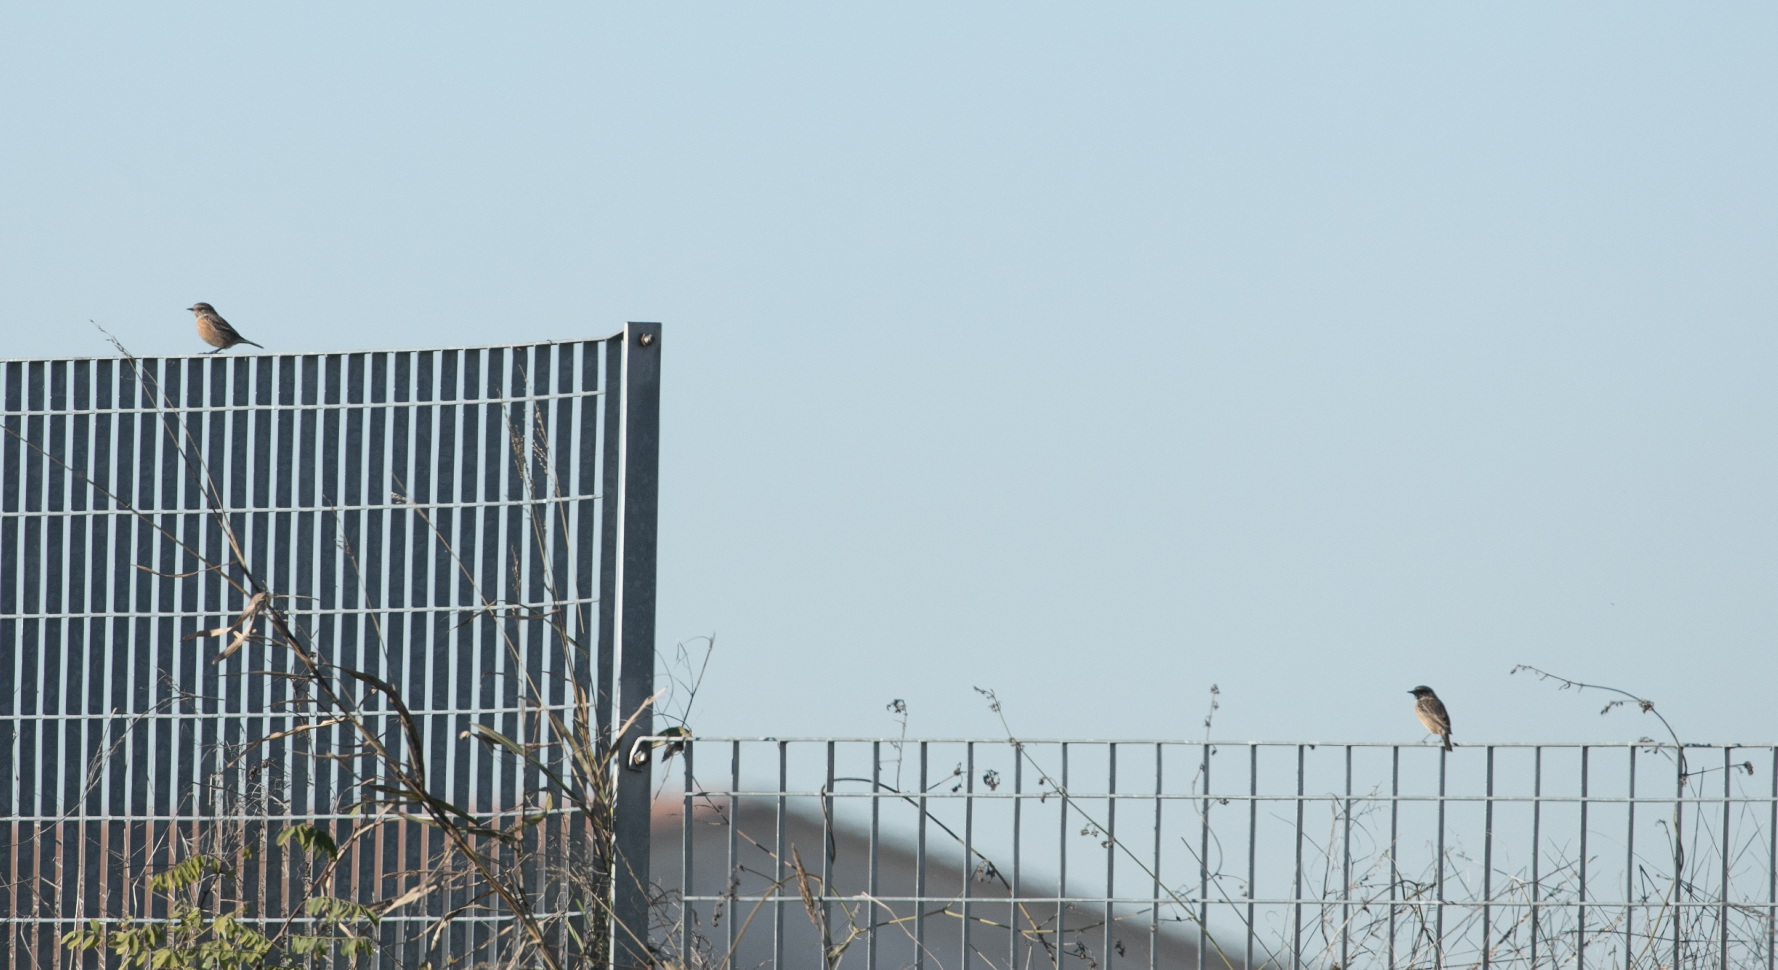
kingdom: Animalia
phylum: Chordata
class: Aves
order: Passeriformes
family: Muscicapidae
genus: Saxicola
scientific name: Saxicola rubicola
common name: European stonechat
